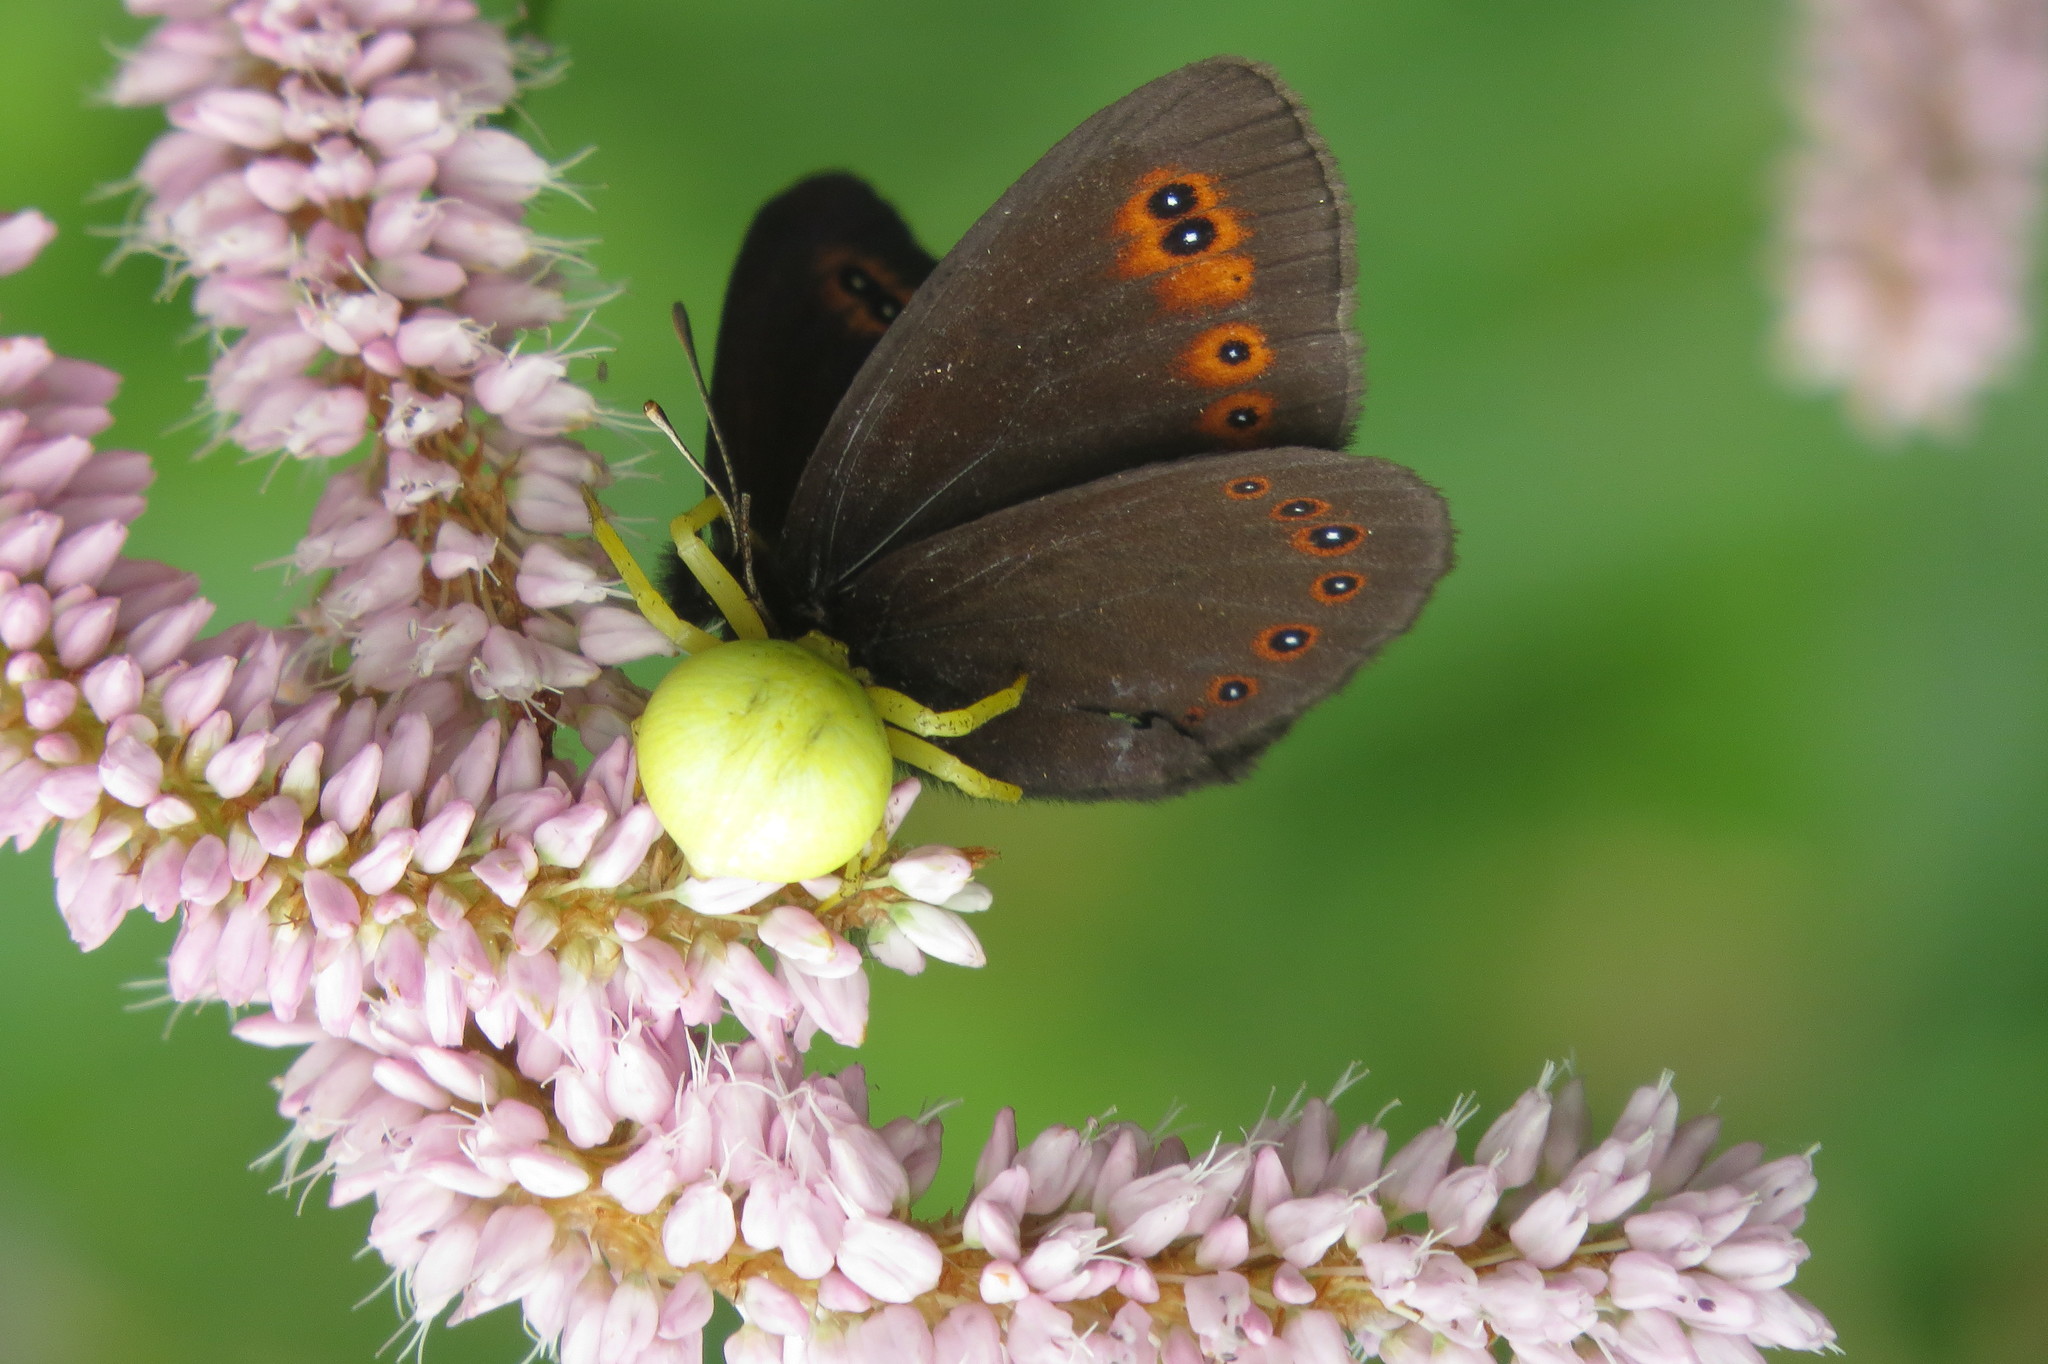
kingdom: Animalia
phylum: Arthropoda
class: Arachnida
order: Araneae
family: Thomisidae
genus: Misumena
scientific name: Misumena vatia
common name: Goldenrod crab spider
